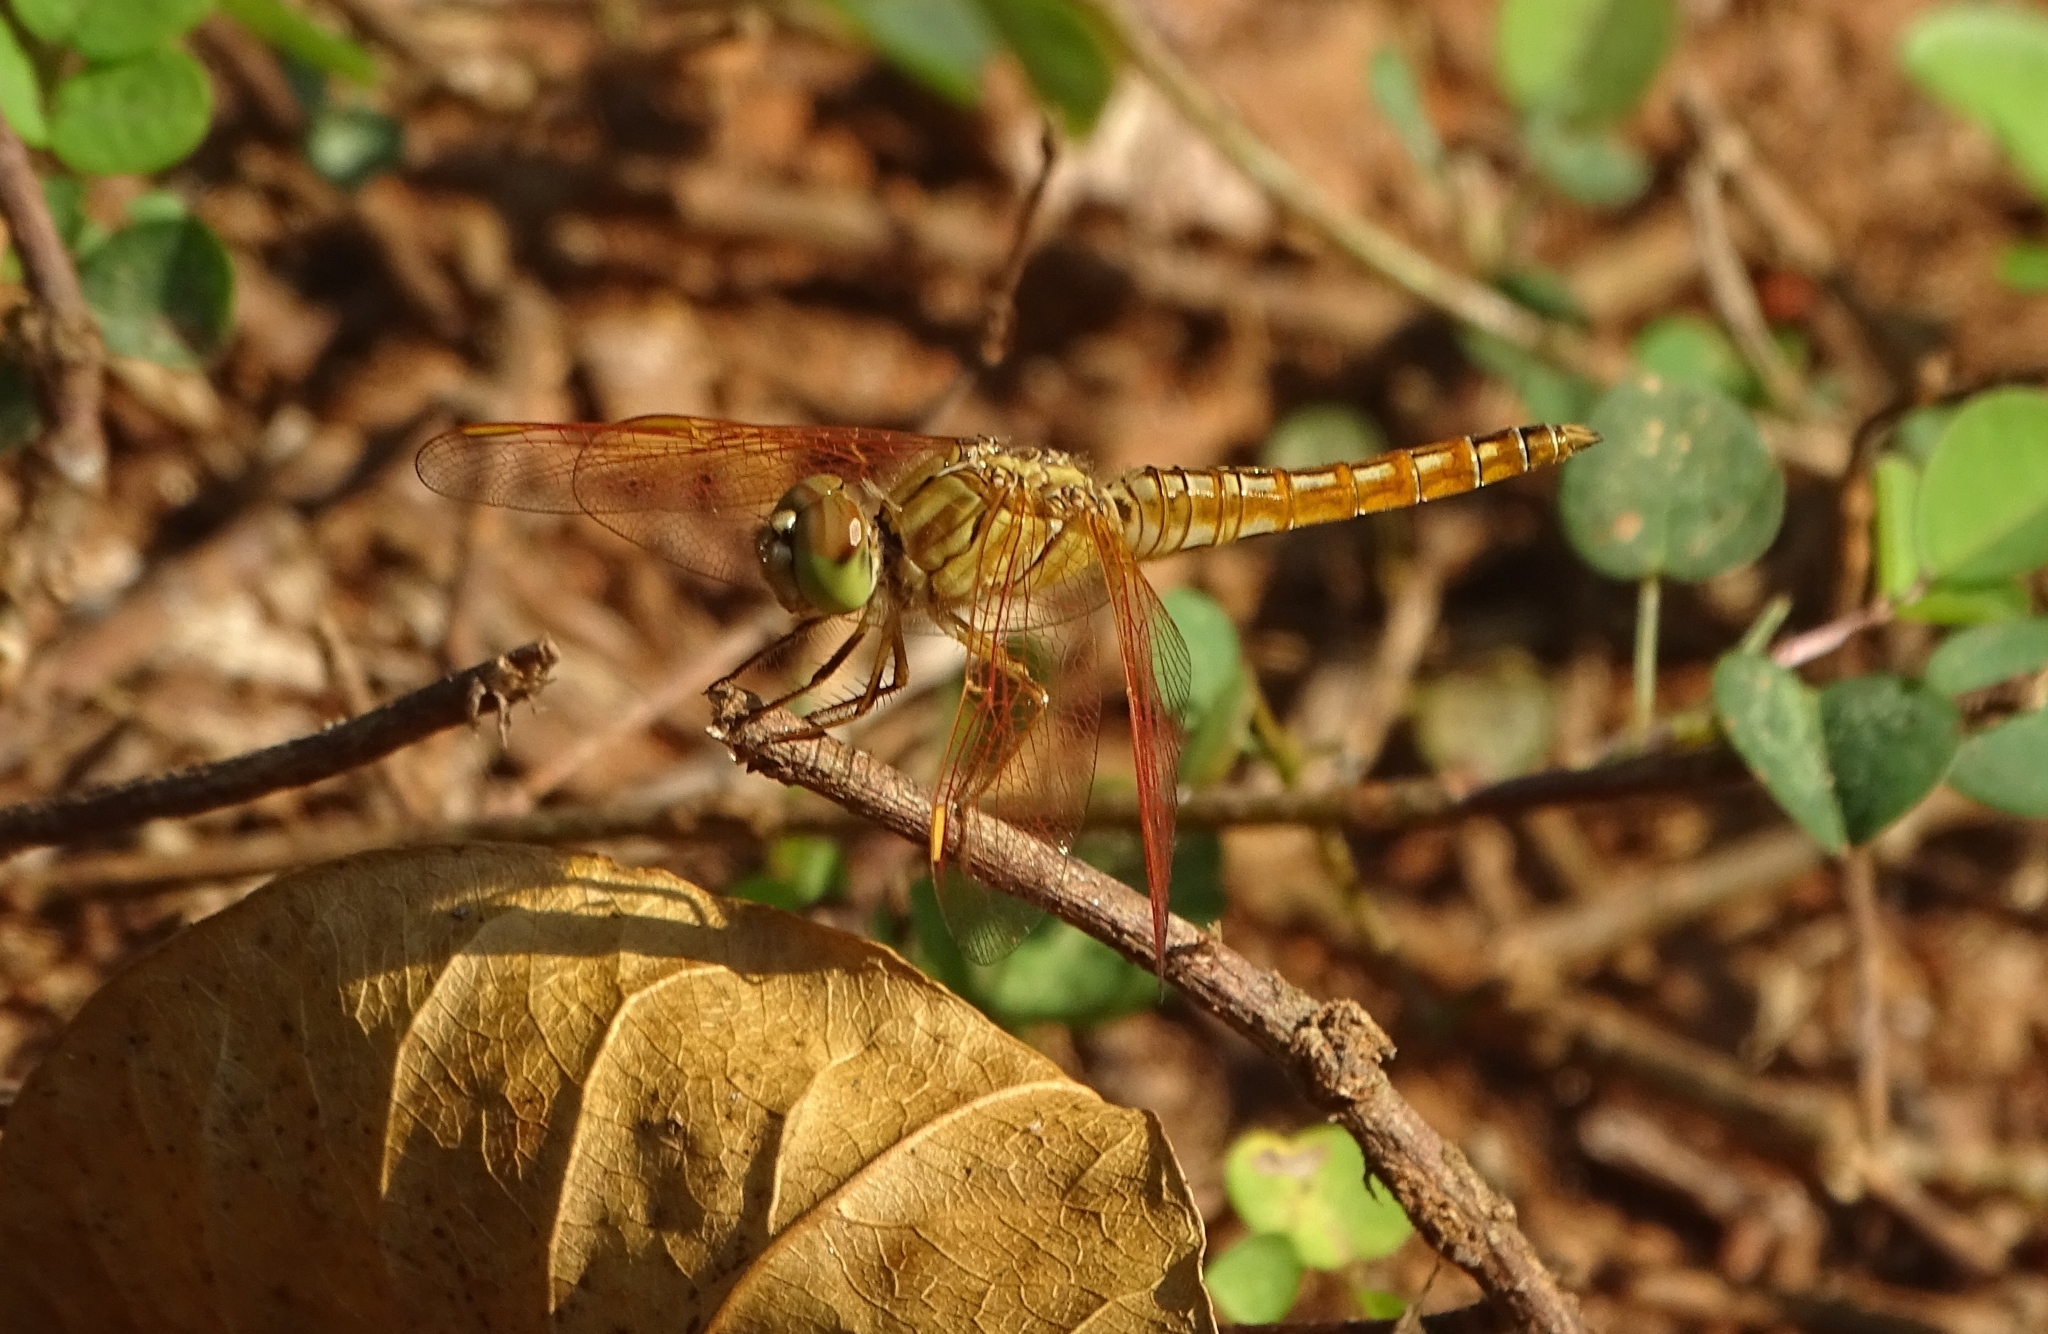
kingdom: Animalia
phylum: Arthropoda
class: Insecta
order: Odonata
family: Libellulidae
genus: Brachythemis
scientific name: Brachythemis contaminata
